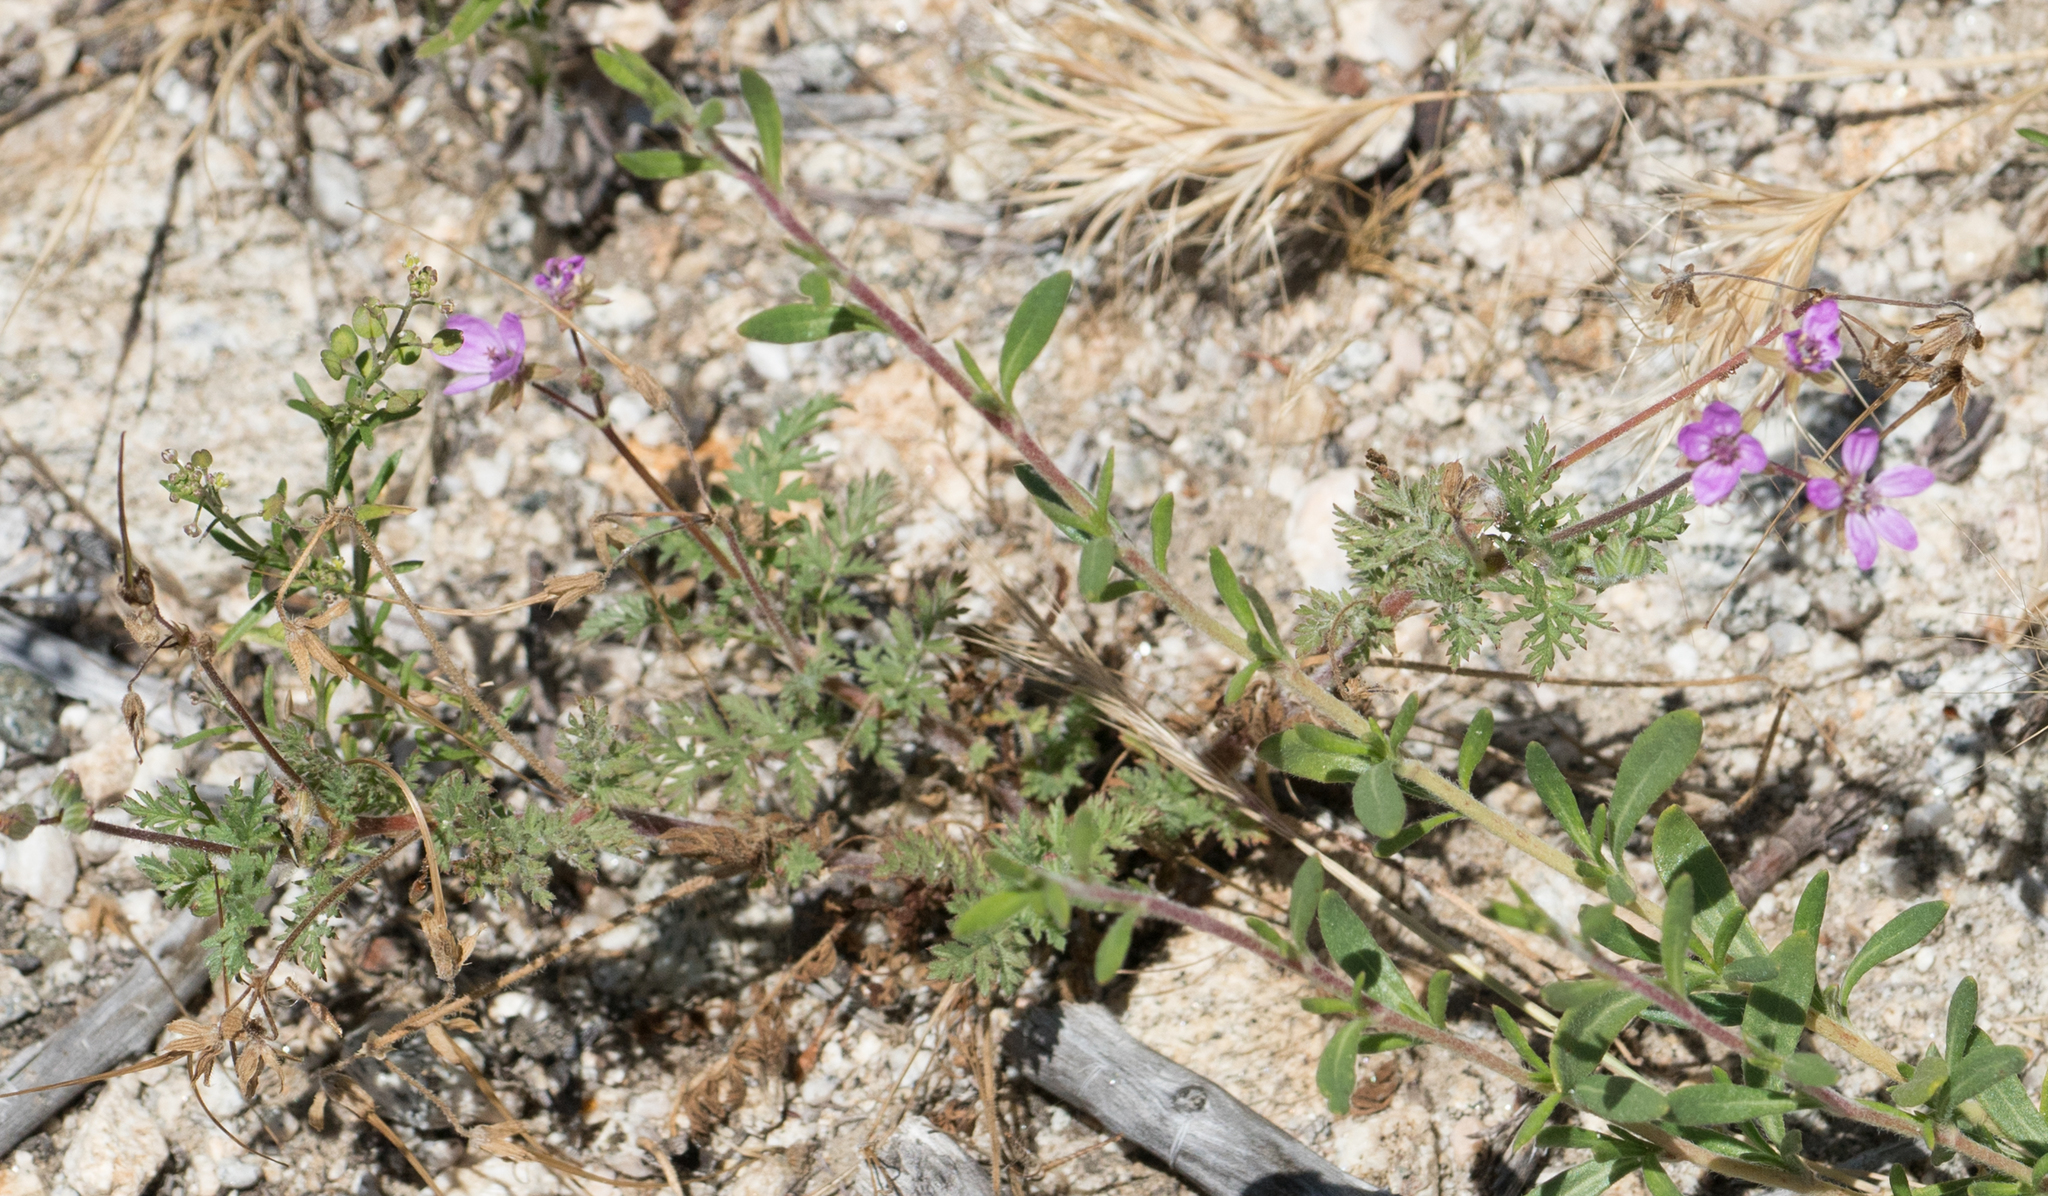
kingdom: Plantae
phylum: Tracheophyta
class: Magnoliopsida
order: Geraniales
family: Geraniaceae
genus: Erodium
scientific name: Erodium cicutarium
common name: Common stork's-bill
